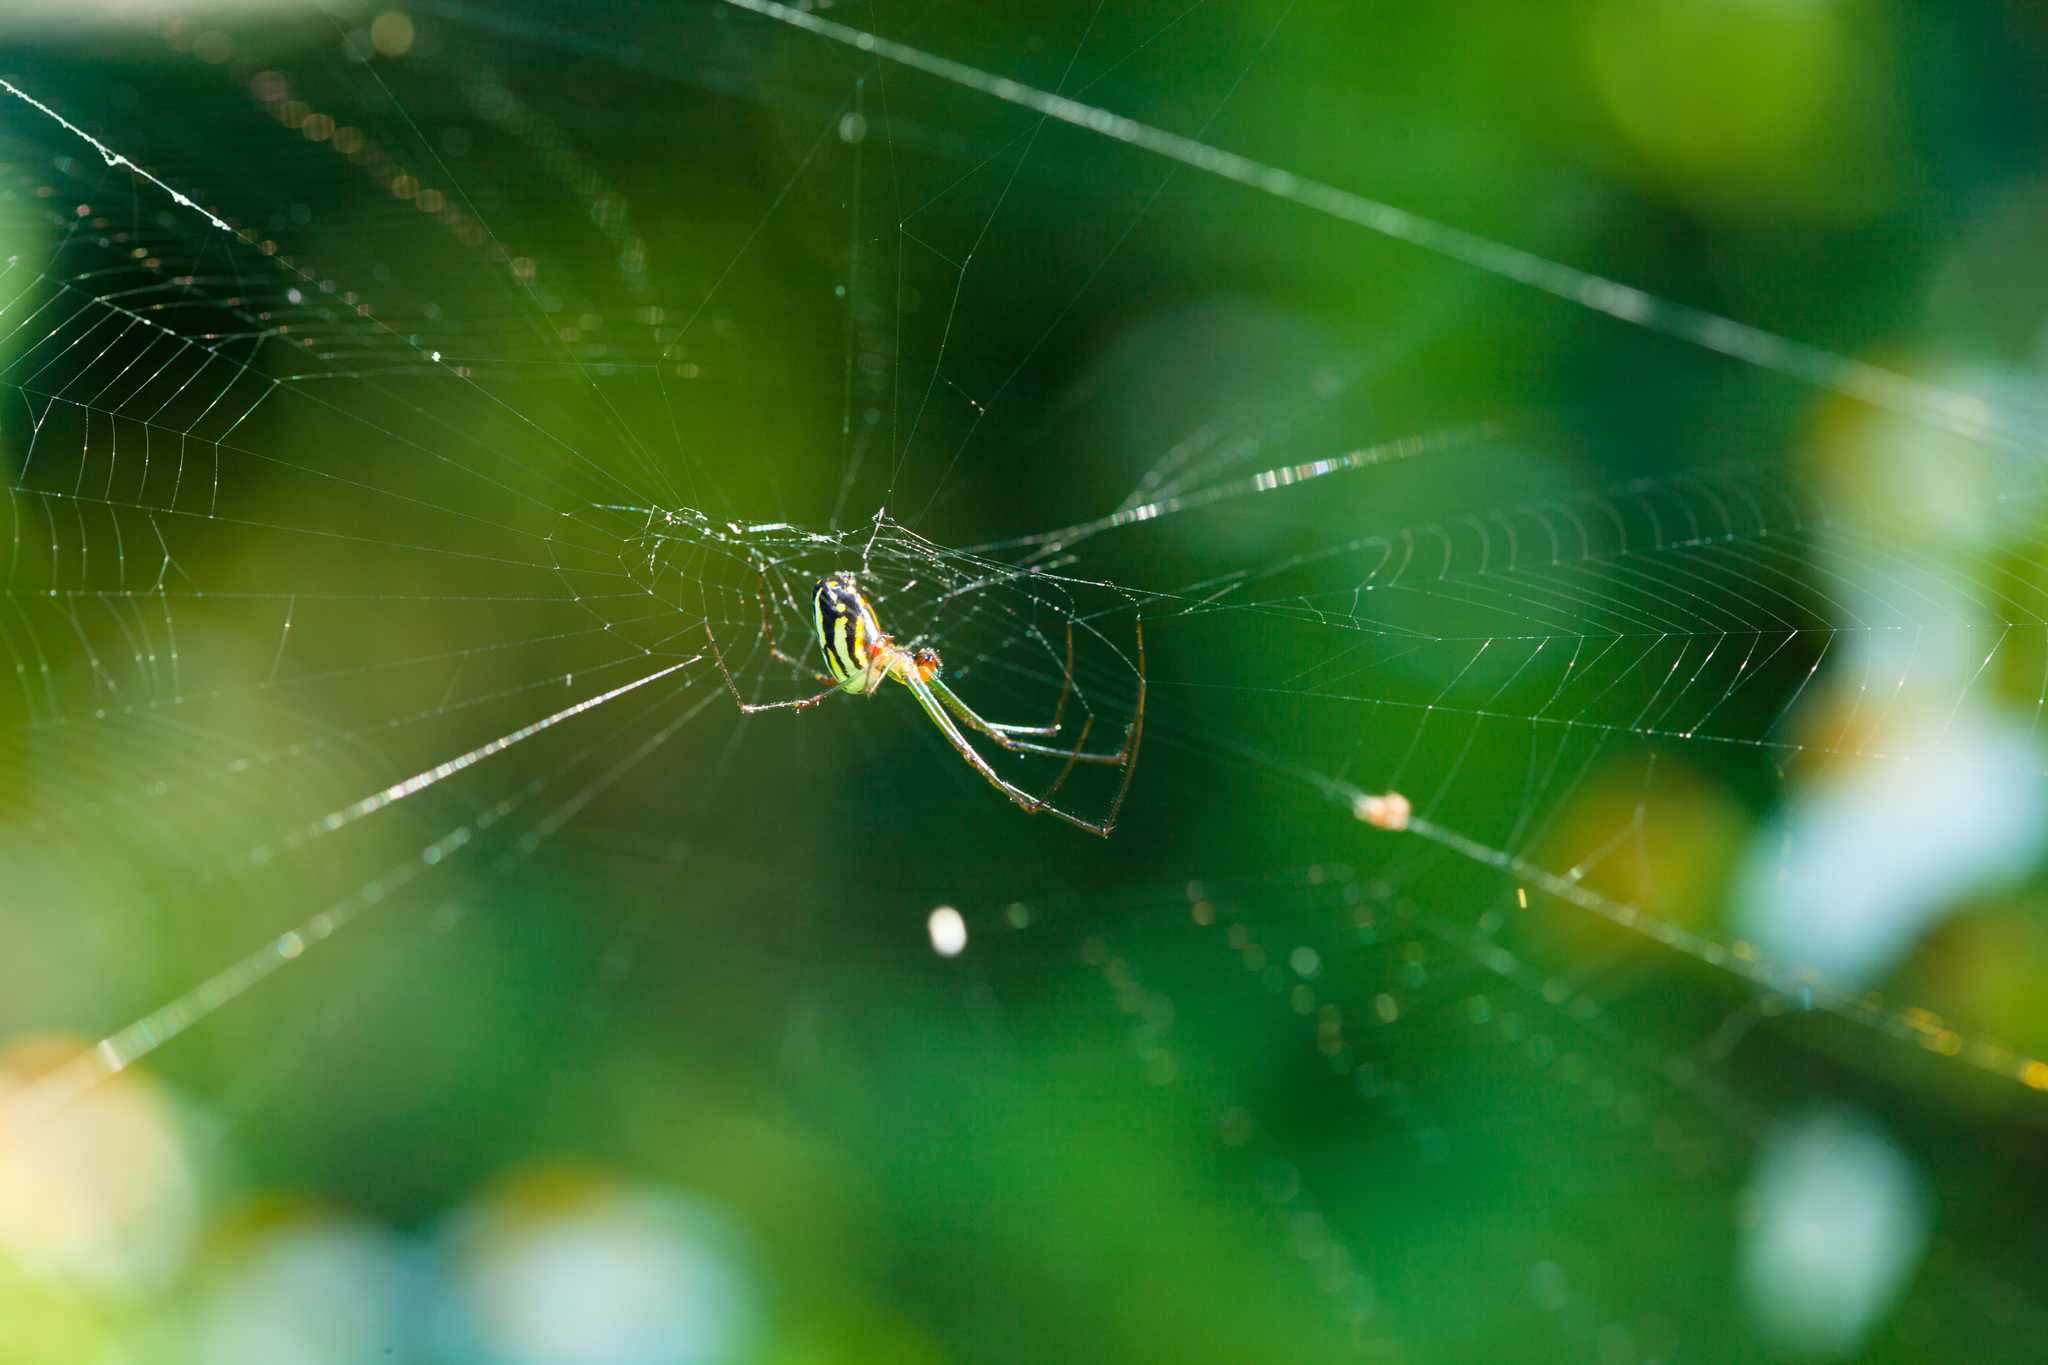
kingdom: Animalia
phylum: Arthropoda
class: Arachnida
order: Araneae
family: Tetragnathidae
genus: Leucauge
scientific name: Leucauge argyra
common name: Longjawed orb weavers
